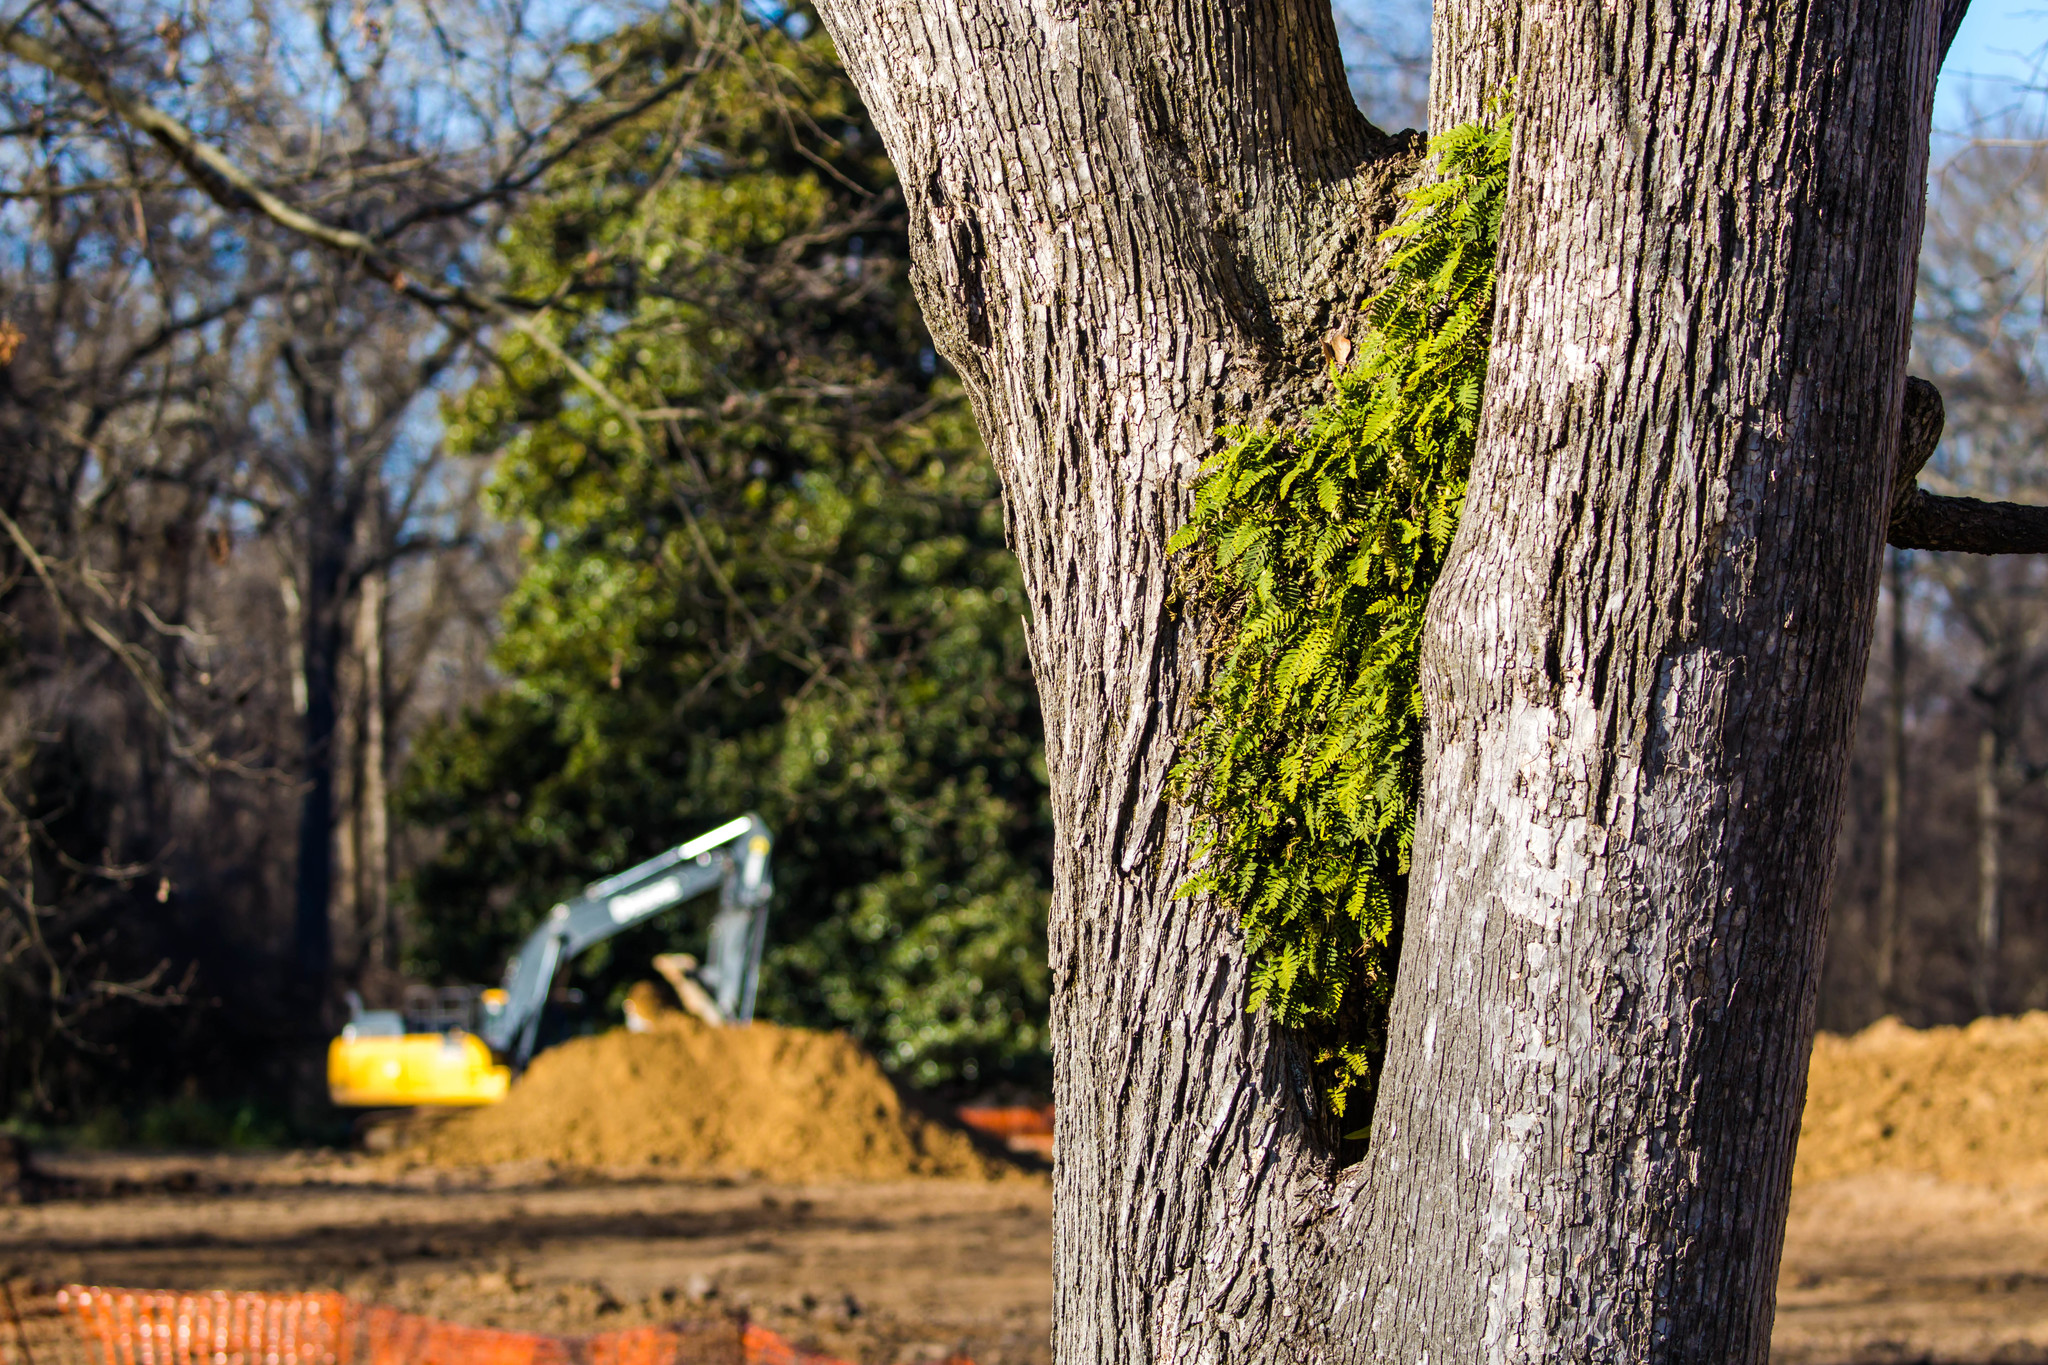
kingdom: Plantae
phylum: Tracheophyta
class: Polypodiopsida
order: Polypodiales
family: Polypodiaceae
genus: Pleopeltis
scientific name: Pleopeltis michauxiana
